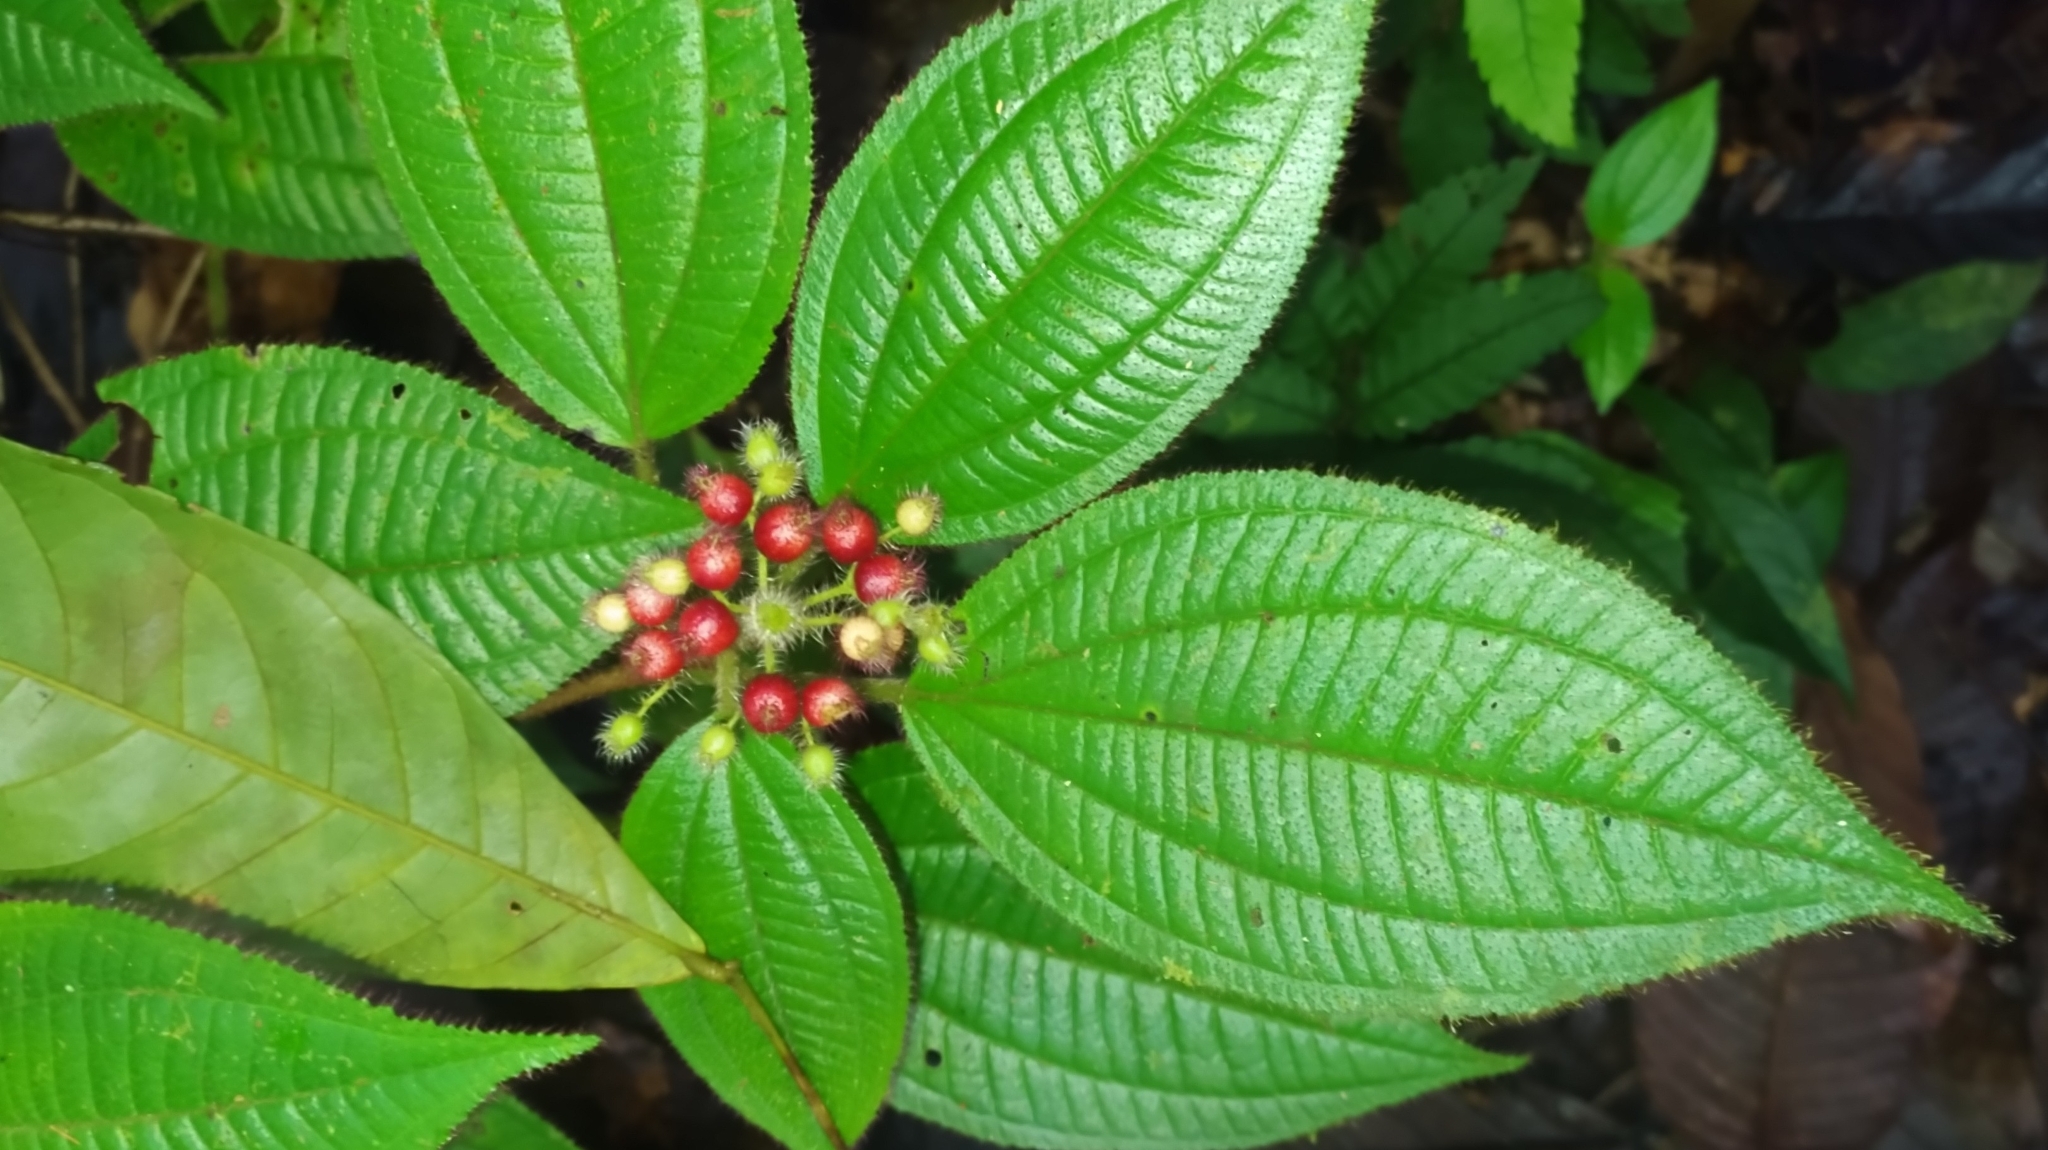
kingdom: Plantae
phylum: Tracheophyta
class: Magnoliopsida
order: Myrtales
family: Melastomataceae
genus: Miconia
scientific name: Miconia agrestis
